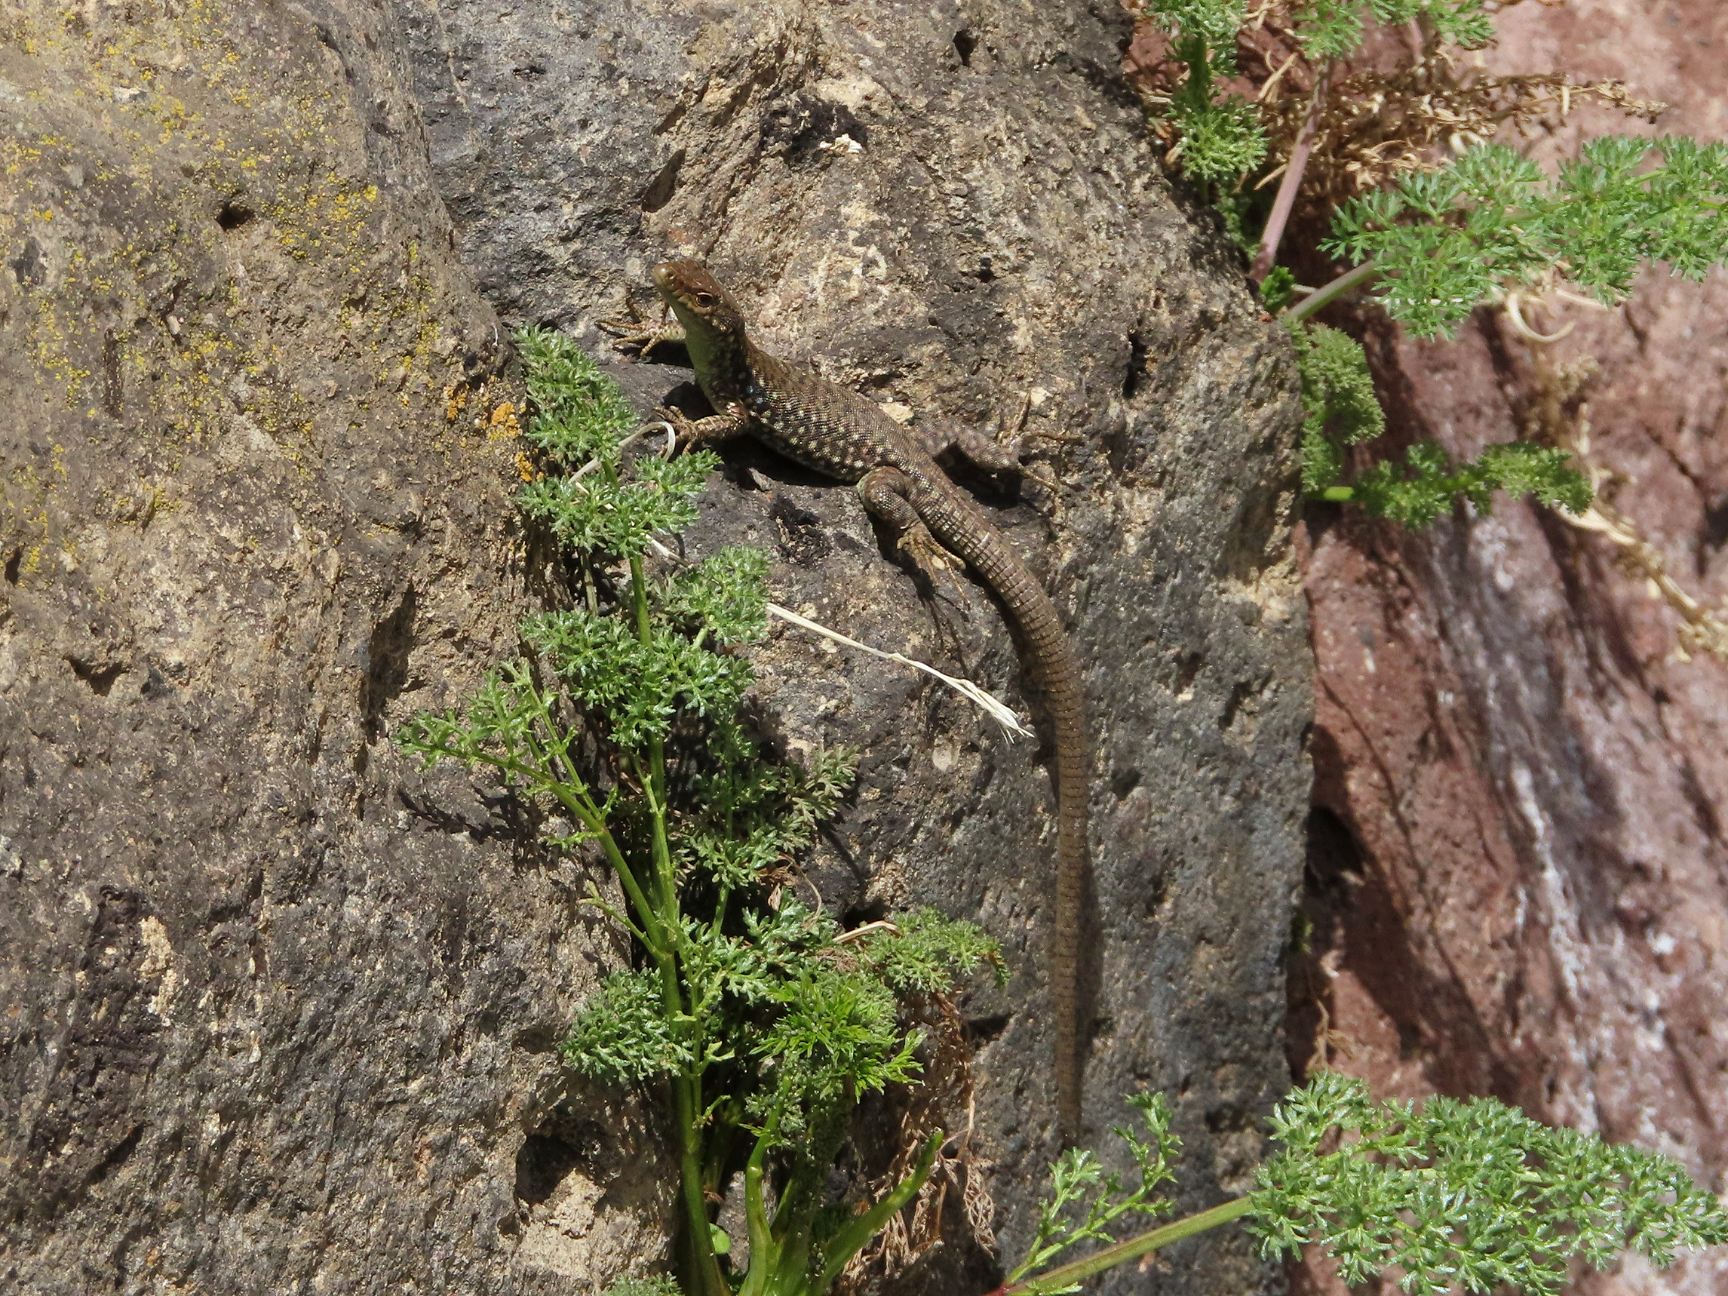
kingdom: Animalia
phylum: Chordata
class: Squamata
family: Lacertidae
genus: Darevskia
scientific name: Darevskia
